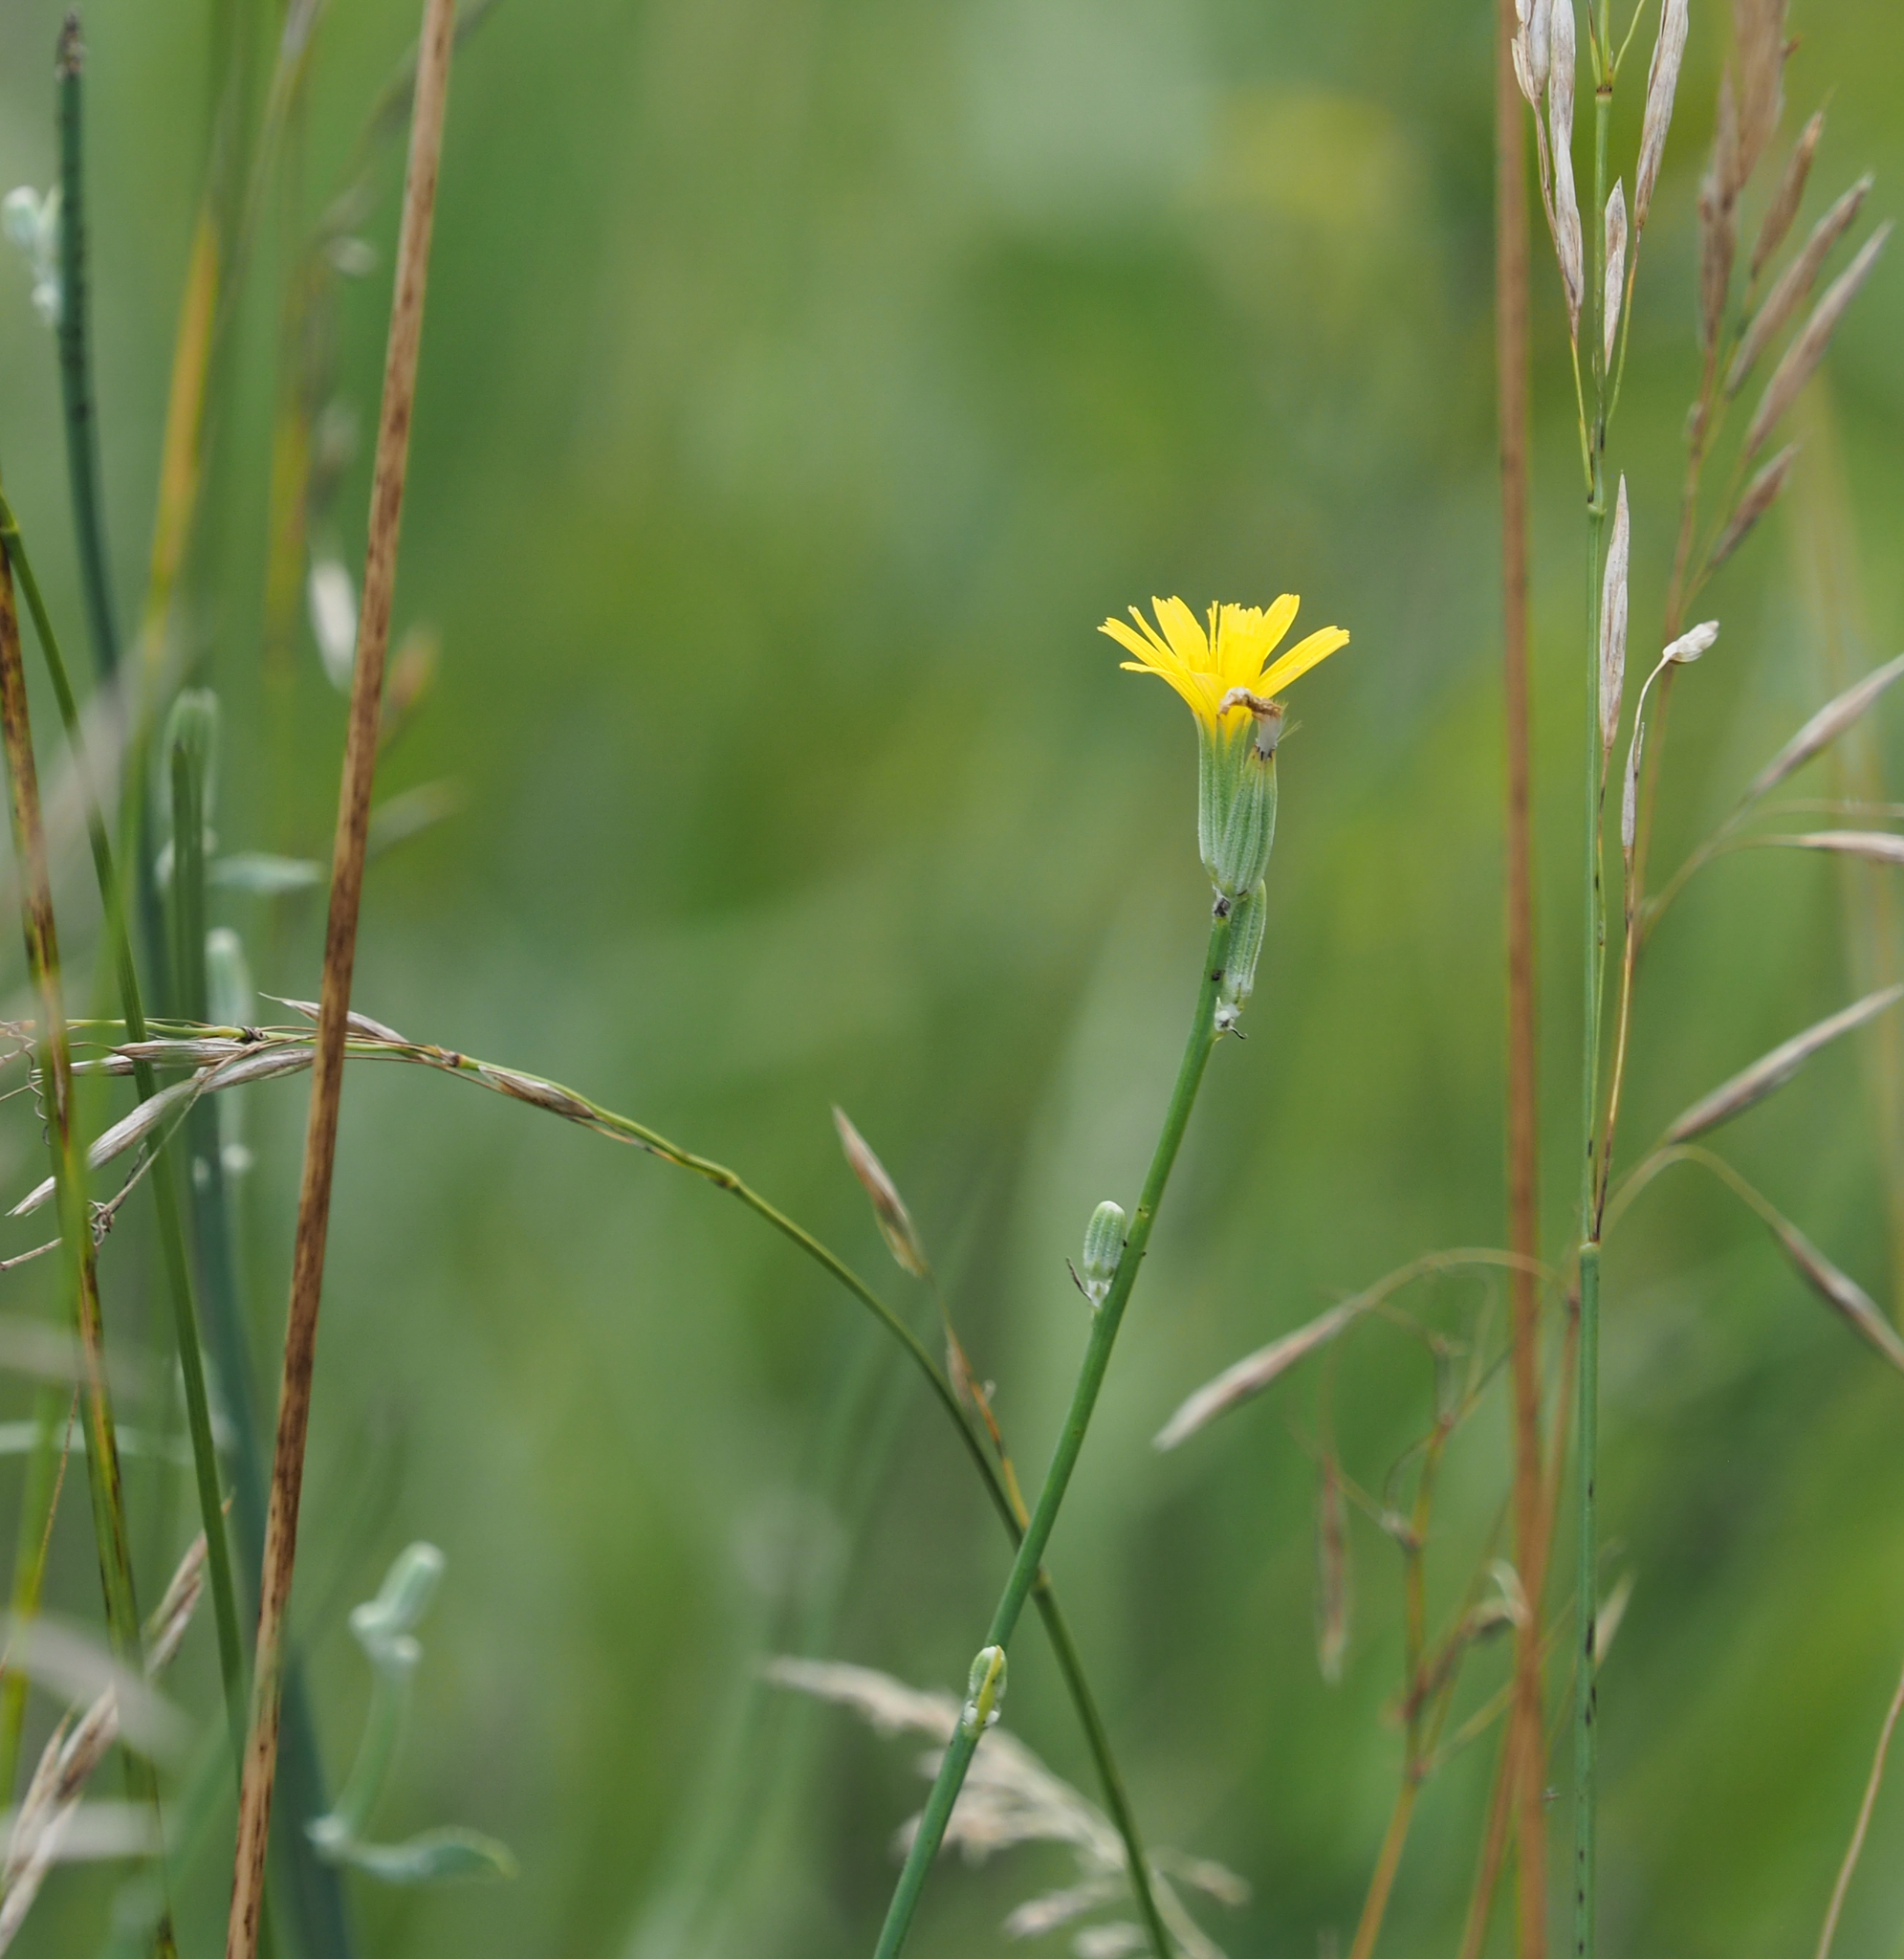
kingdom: Plantae
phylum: Tracheophyta
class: Magnoliopsida
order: Asterales
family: Asteraceae
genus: Chondrilla
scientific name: Chondrilla juncea
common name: Skeleton weed
